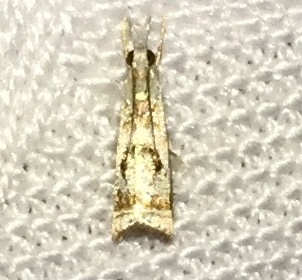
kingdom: Animalia
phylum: Arthropoda
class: Insecta
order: Lepidoptera
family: Crambidae
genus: Microcrambus
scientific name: Microcrambus elegans
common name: Elegant grass-veneer
